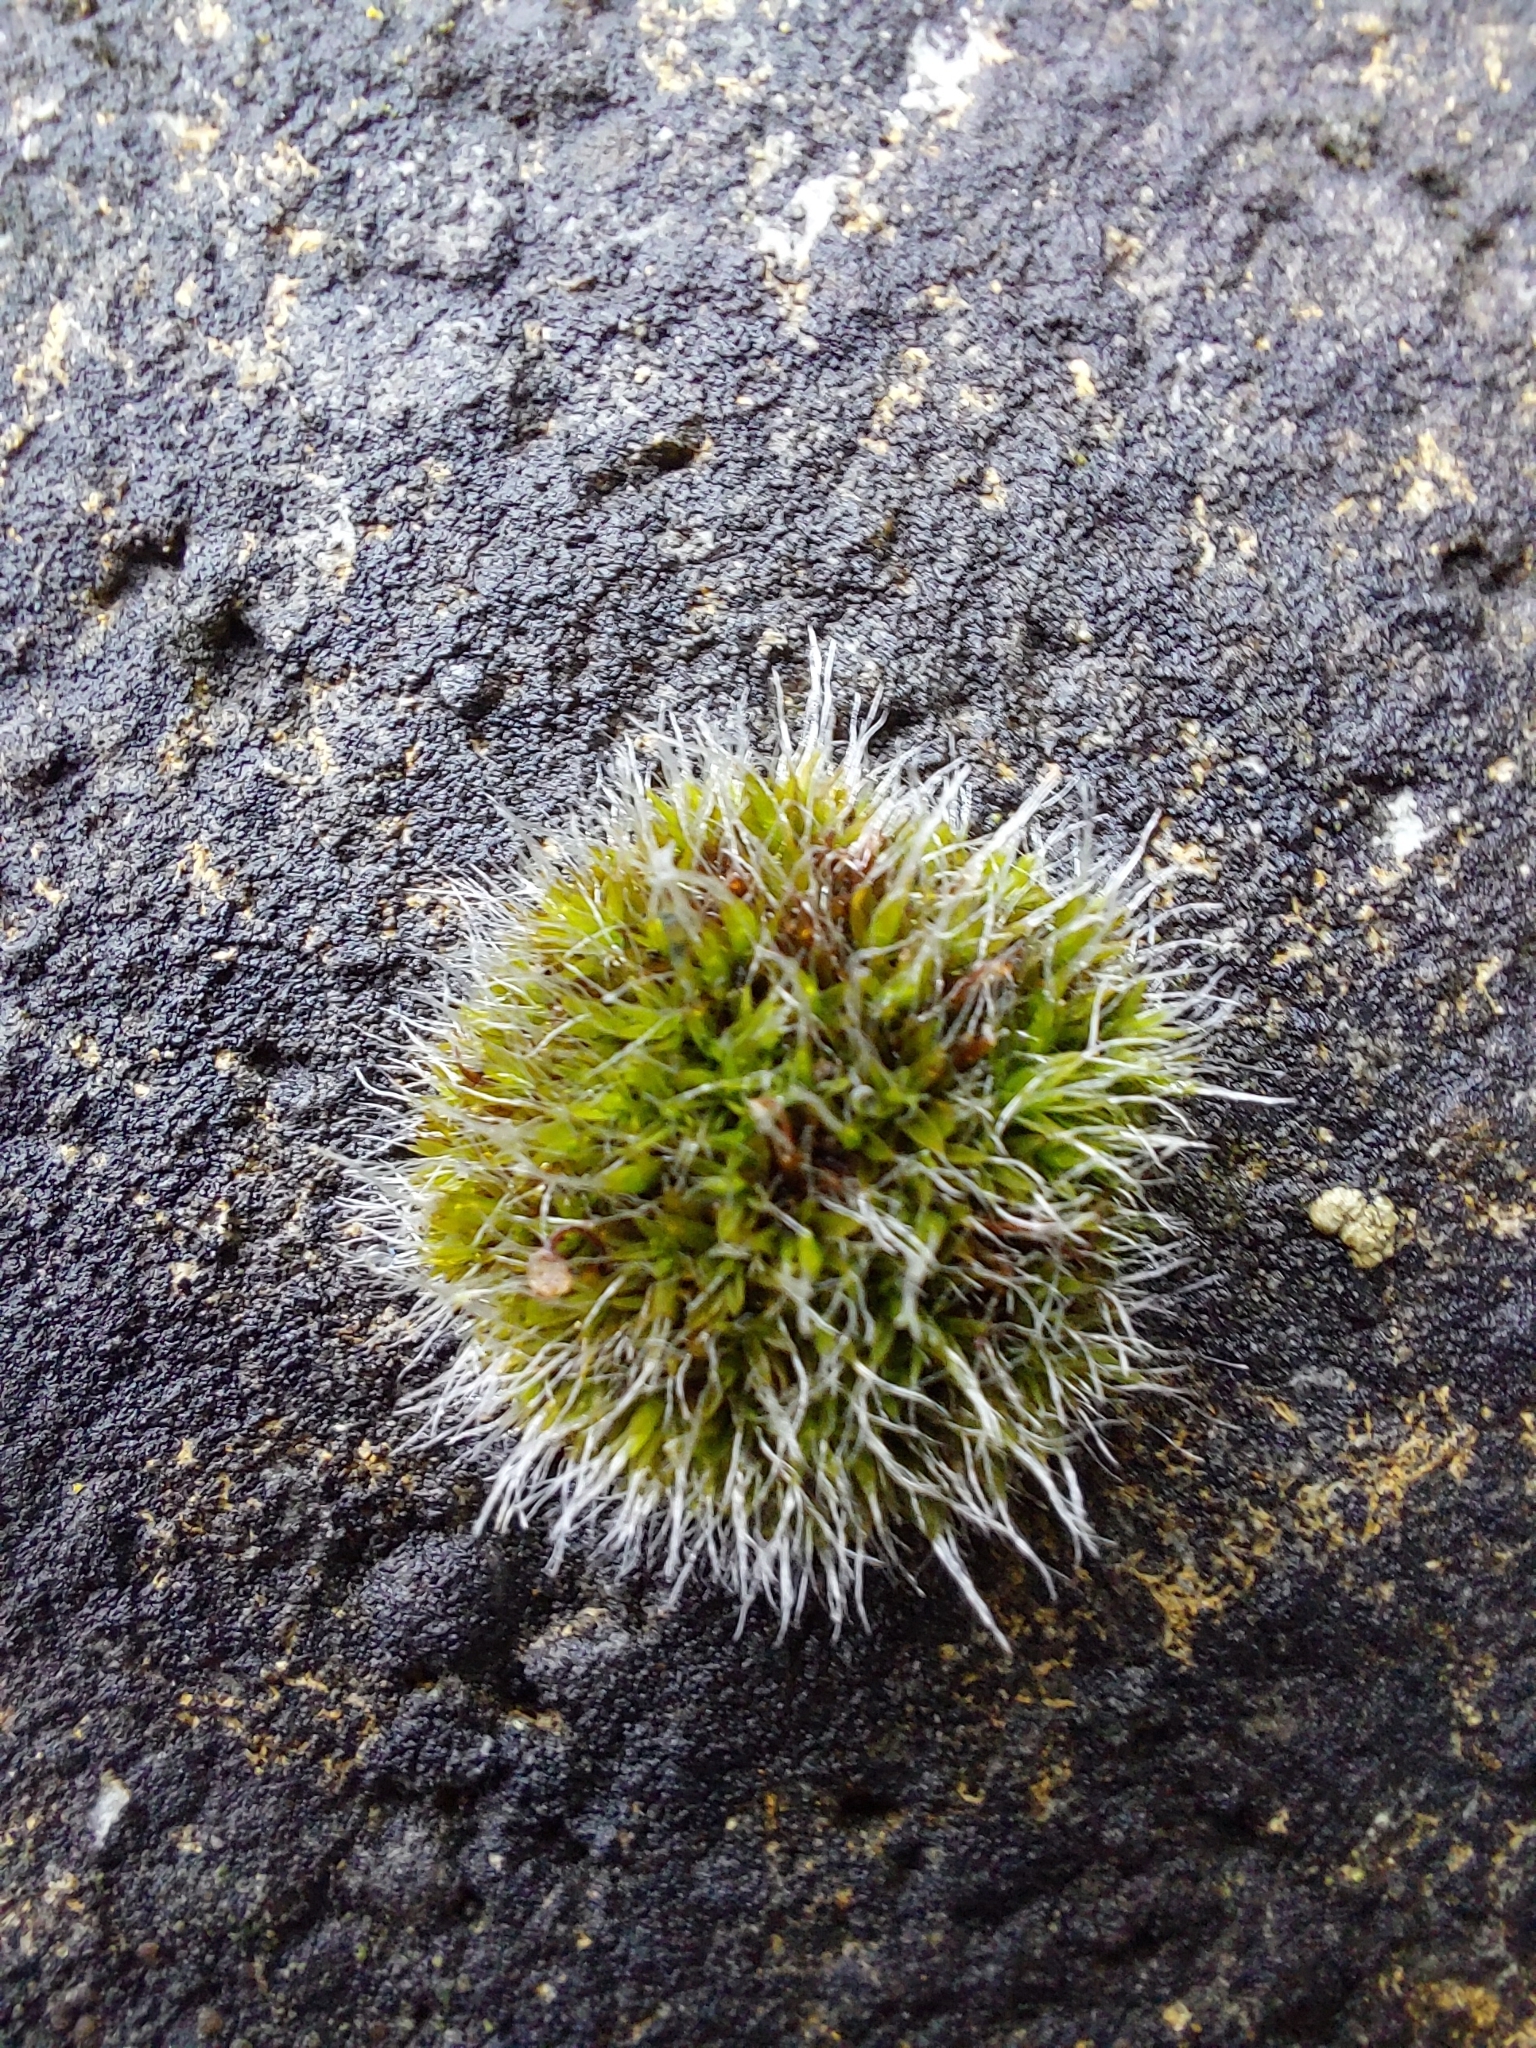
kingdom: Plantae
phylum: Bryophyta
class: Bryopsida
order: Grimmiales
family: Grimmiaceae
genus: Grimmia
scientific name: Grimmia pulvinata
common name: Grey-cushioned grimmia
